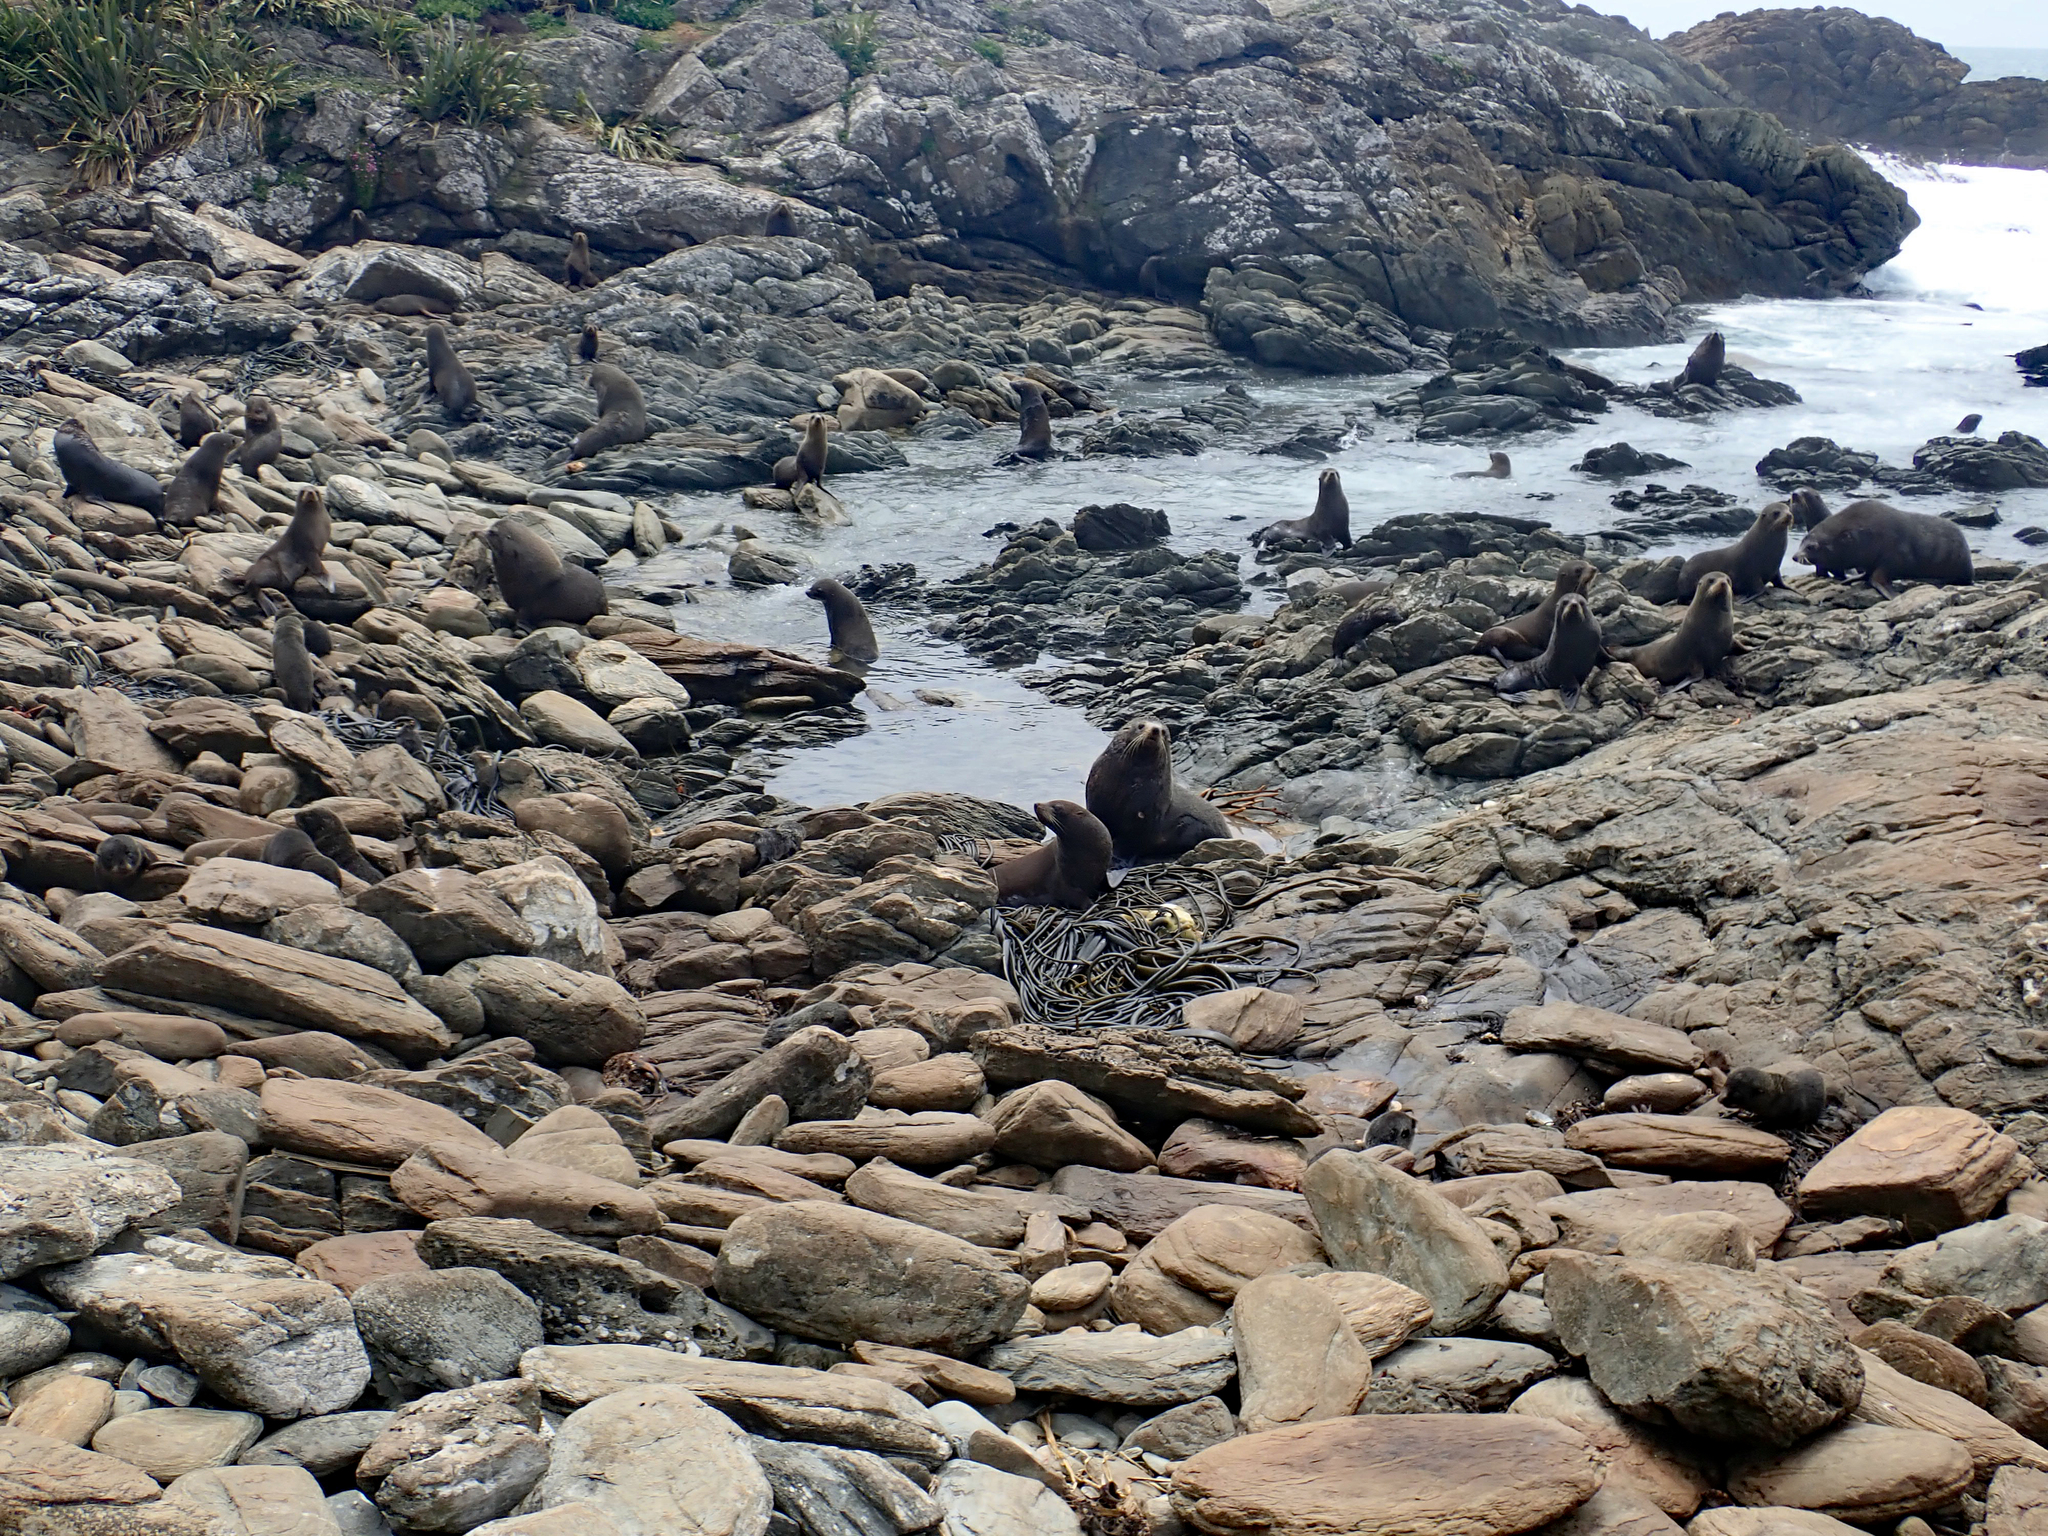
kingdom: Animalia
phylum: Chordata
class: Mammalia
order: Carnivora
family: Otariidae
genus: Arctocephalus
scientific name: Arctocephalus forsteri
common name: New zealand fur seal
